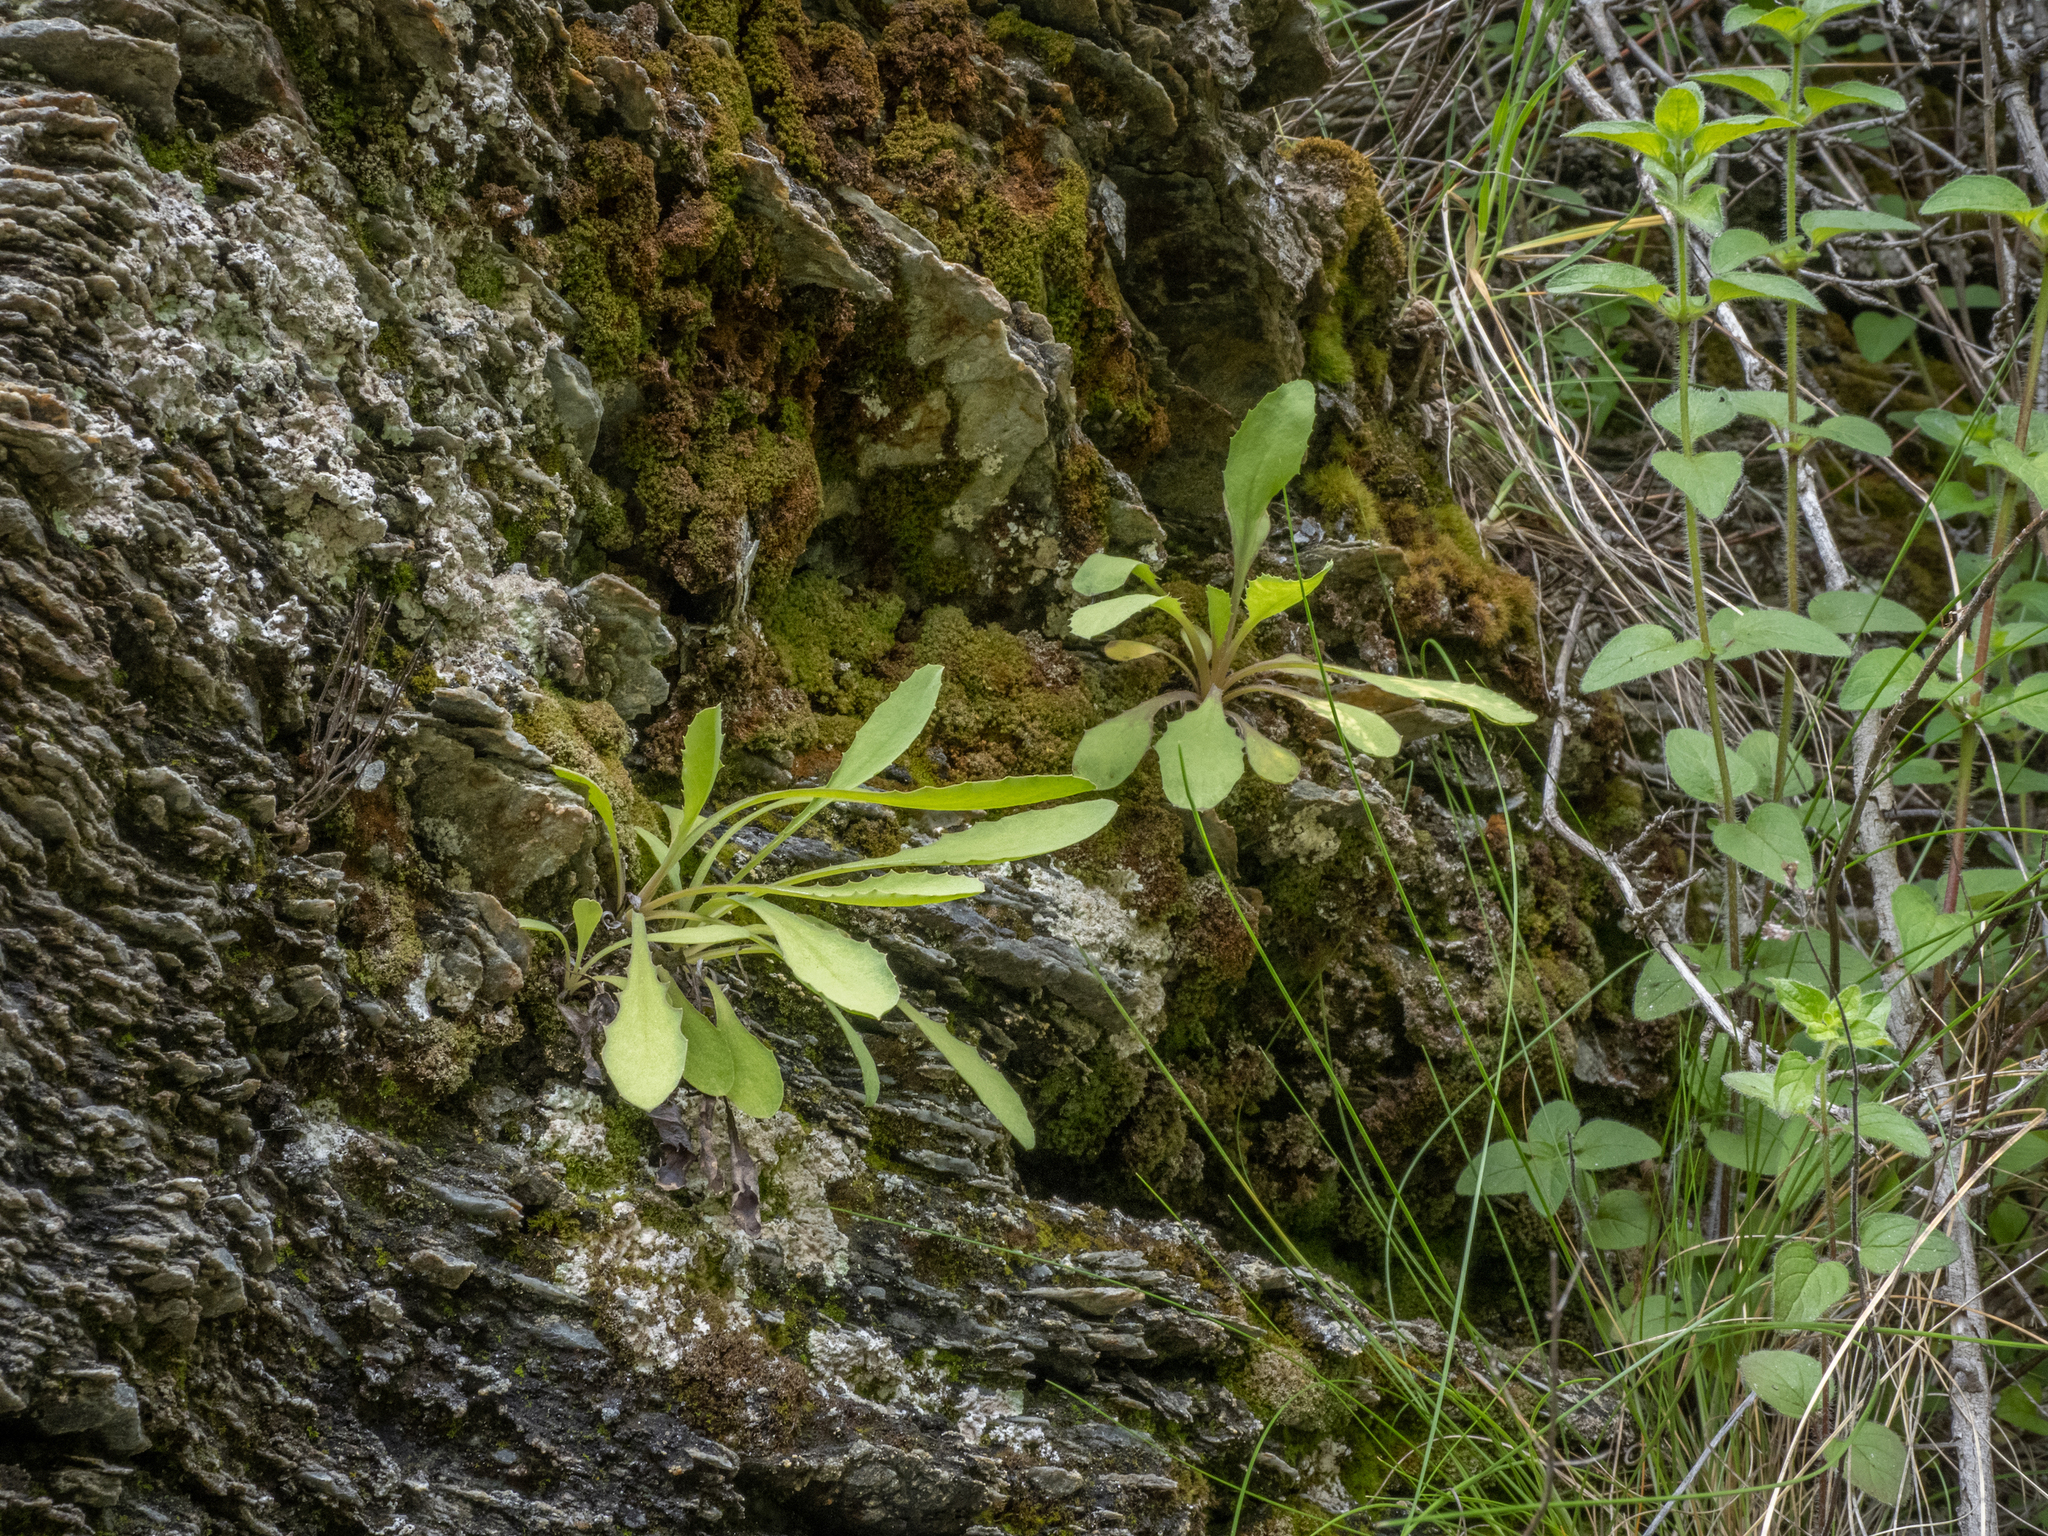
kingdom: Plantae
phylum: Tracheophyta
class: Magnoliopsida
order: Asterales
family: Asteraceae
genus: Sonchus
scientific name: Sonchus novae-zelandiae
